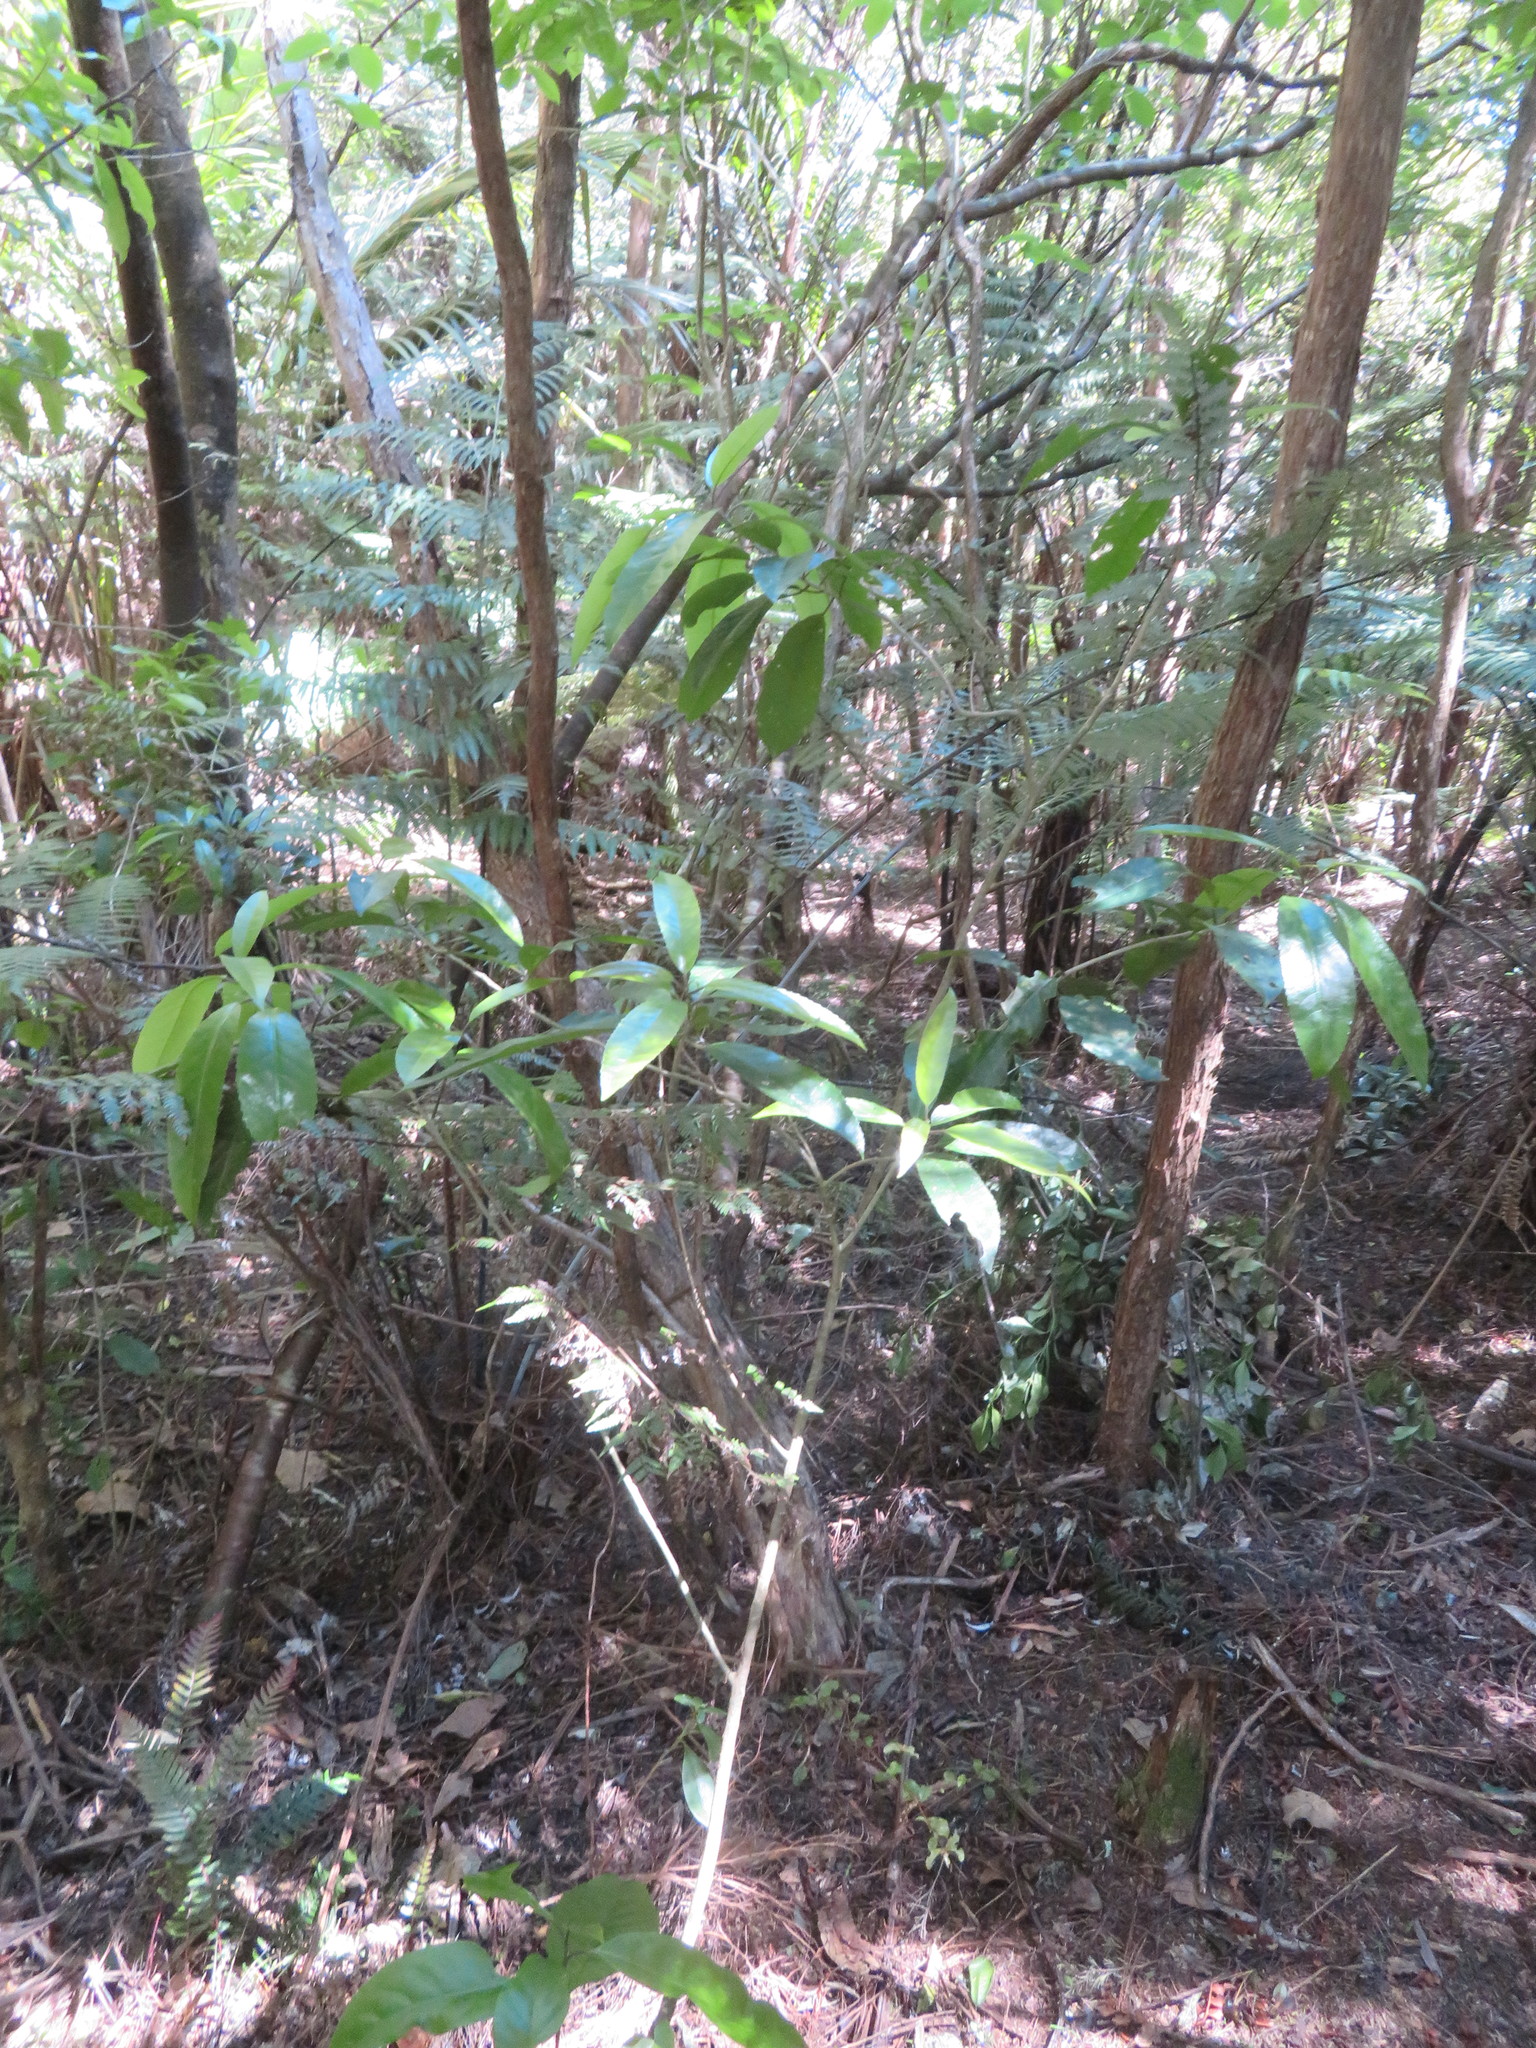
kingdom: Plantae
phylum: Tracheophyta
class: Magnoliopsida
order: Malpighiales
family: Violaceae
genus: Melicytus
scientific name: Melicytus ramiflorus
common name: Mahoe
